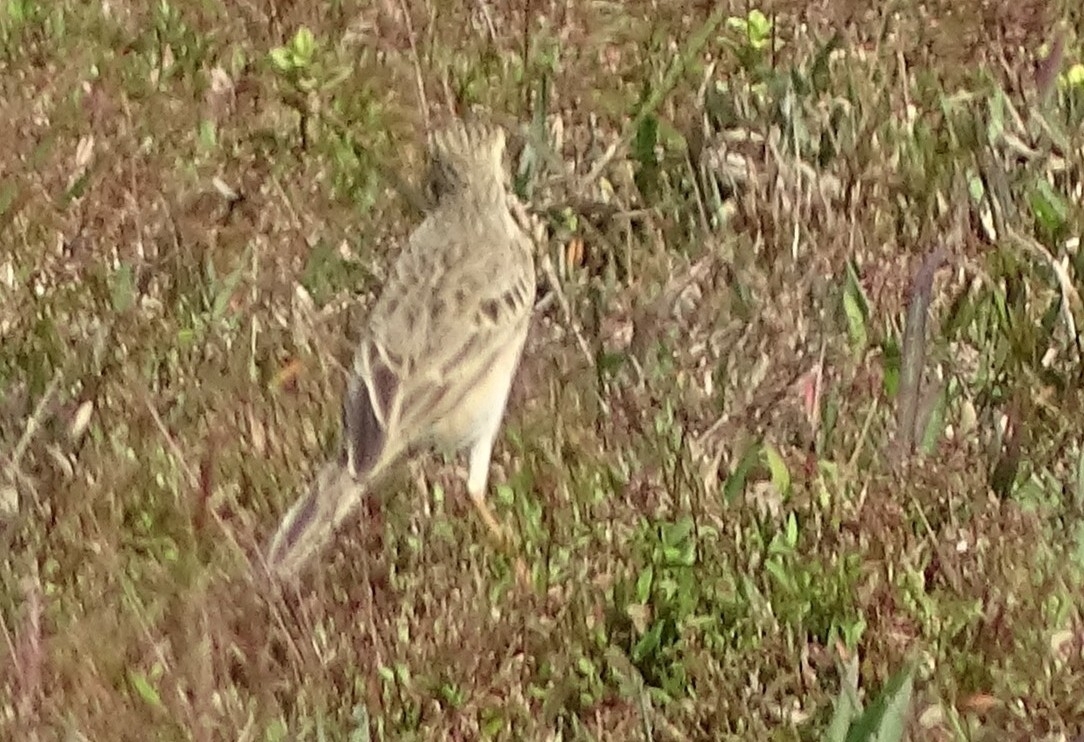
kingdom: Animalia
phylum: Chordata
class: Aves
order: Passeriformes
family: Motacillidae
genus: Anthus
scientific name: Anthus rufulus
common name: Paddyfield pipit
